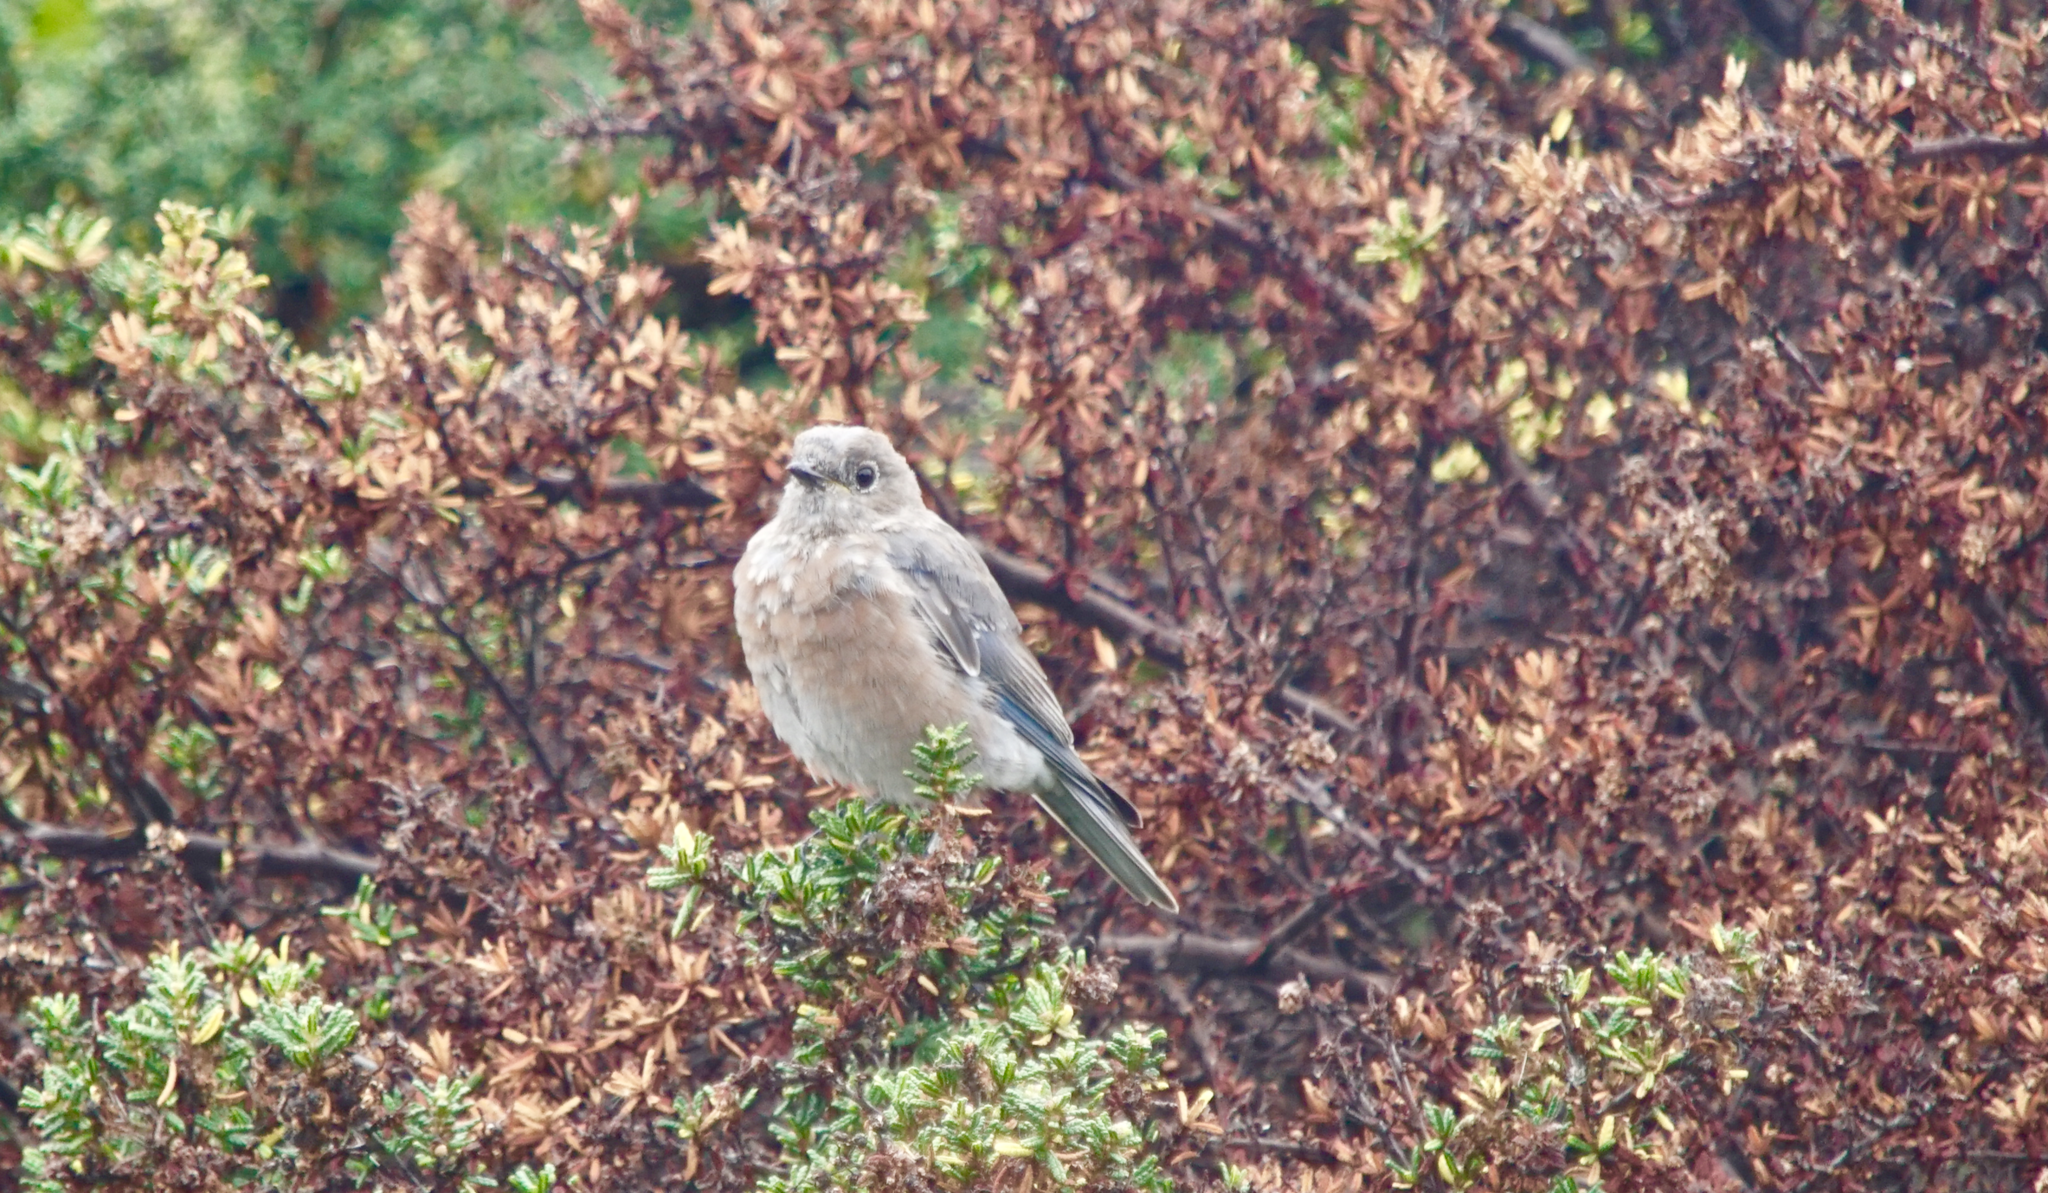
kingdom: Animalia
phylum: Chordata
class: Aves
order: Passeriformes
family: Turdidae
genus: Sialia
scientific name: Sialia mexicana
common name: Western bluebird
